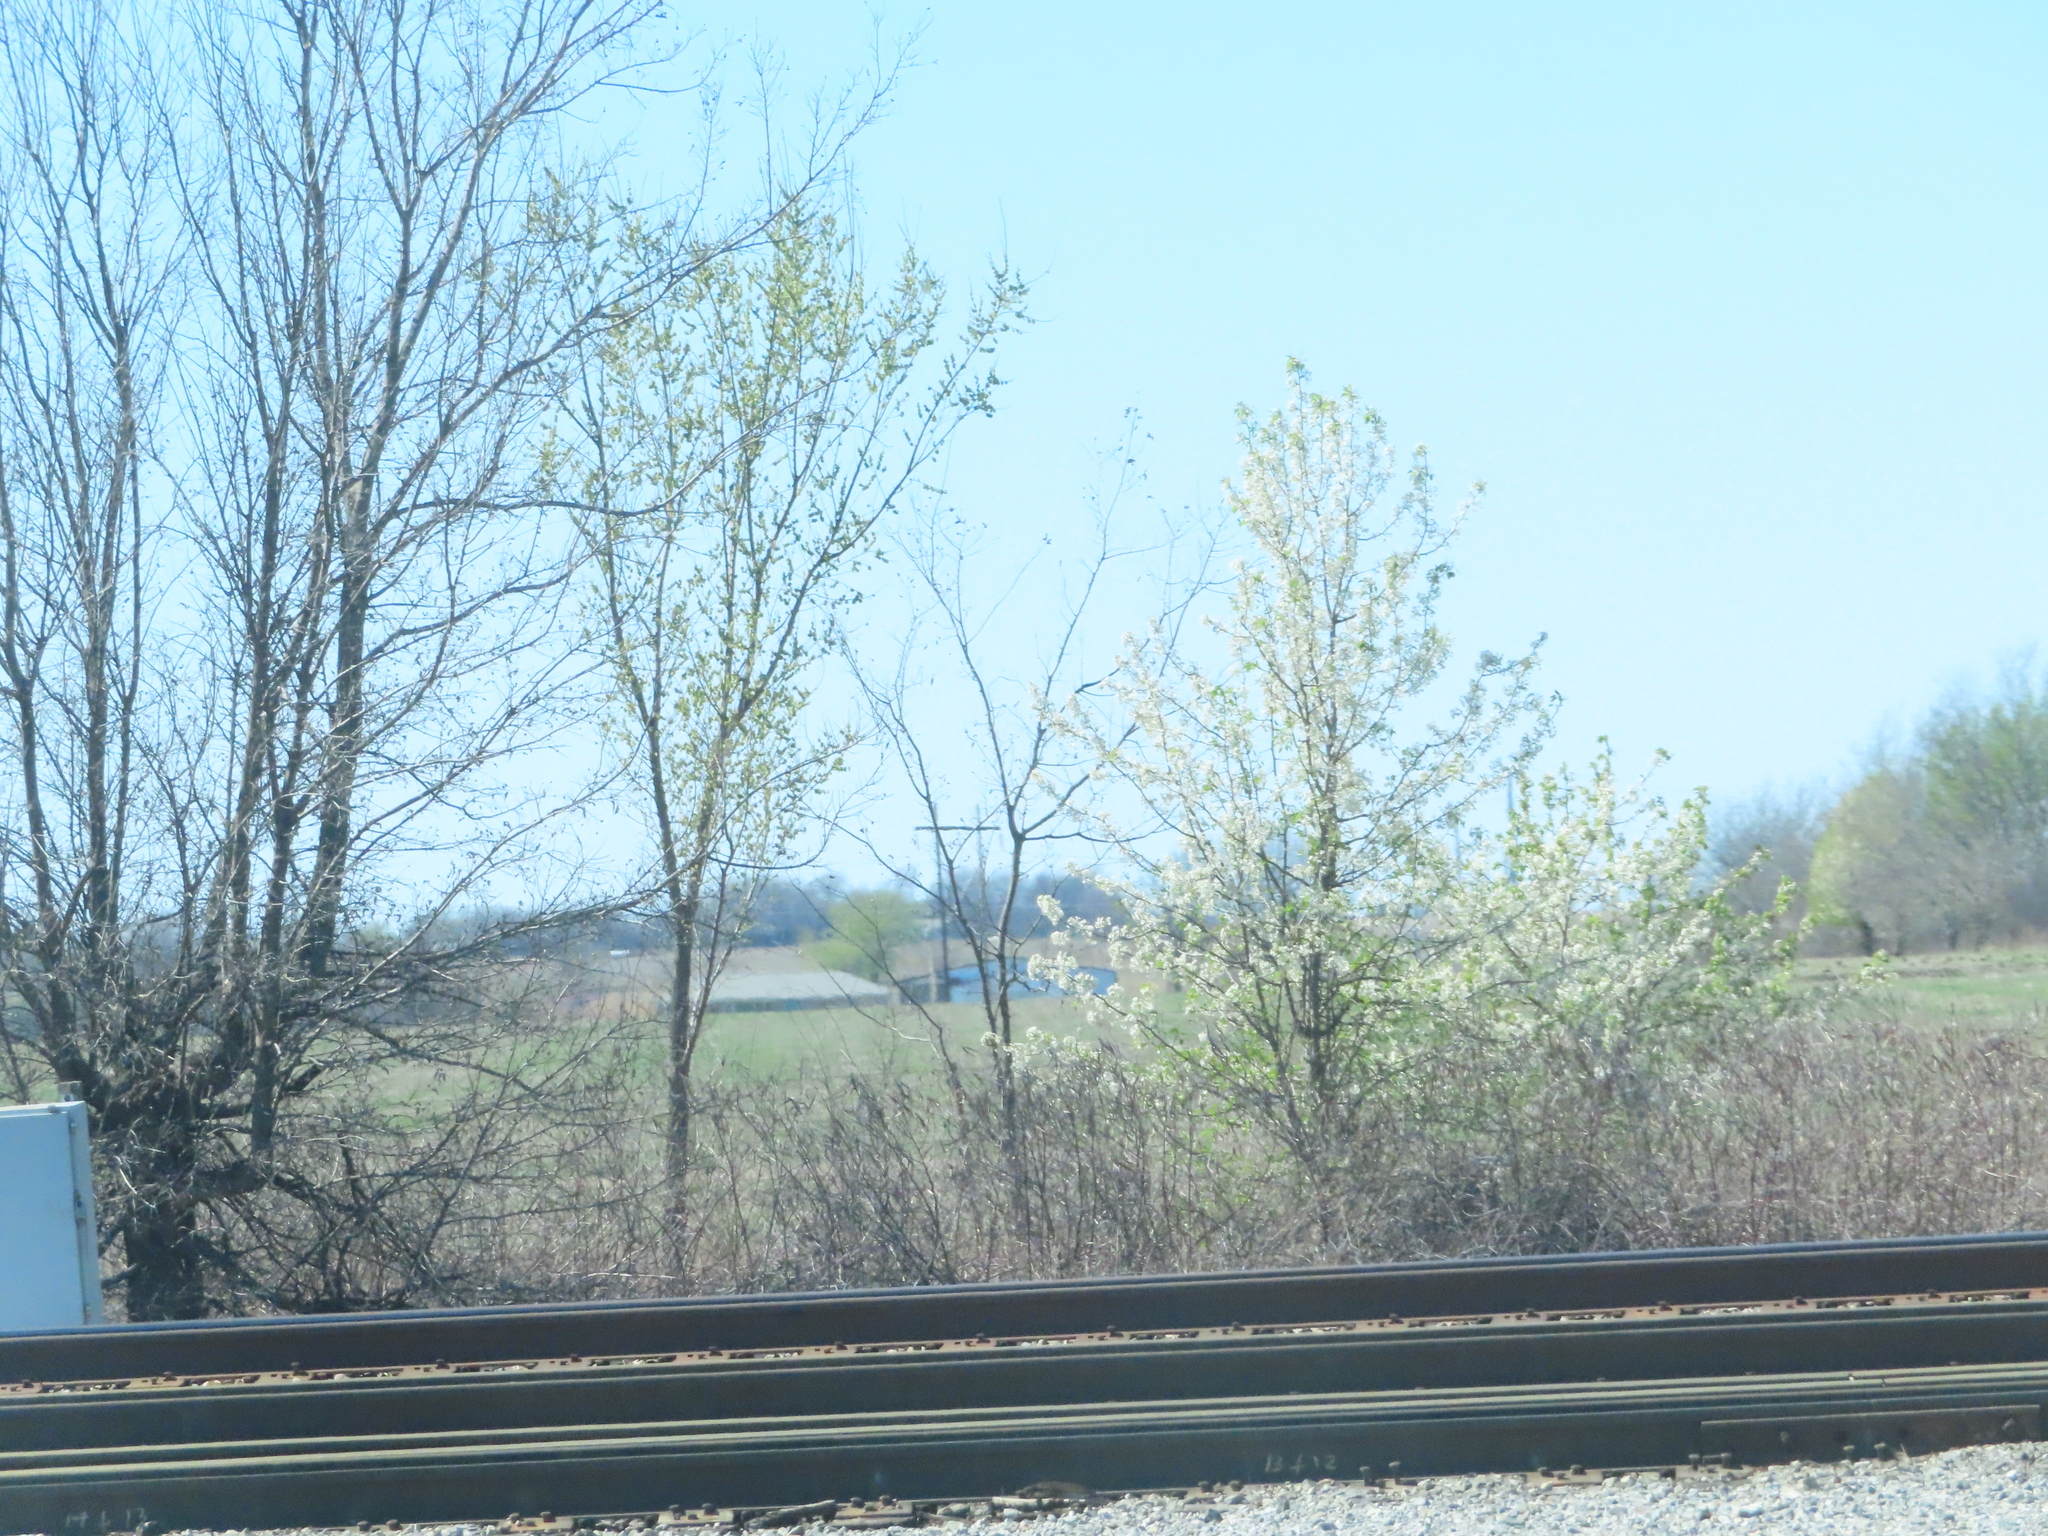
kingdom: Plantae
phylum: Tracheophyta
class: Magnoliopsida
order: Rosales
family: Rosaceae
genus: Pyrus
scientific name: Pyrus calleryana
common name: Callery pear
